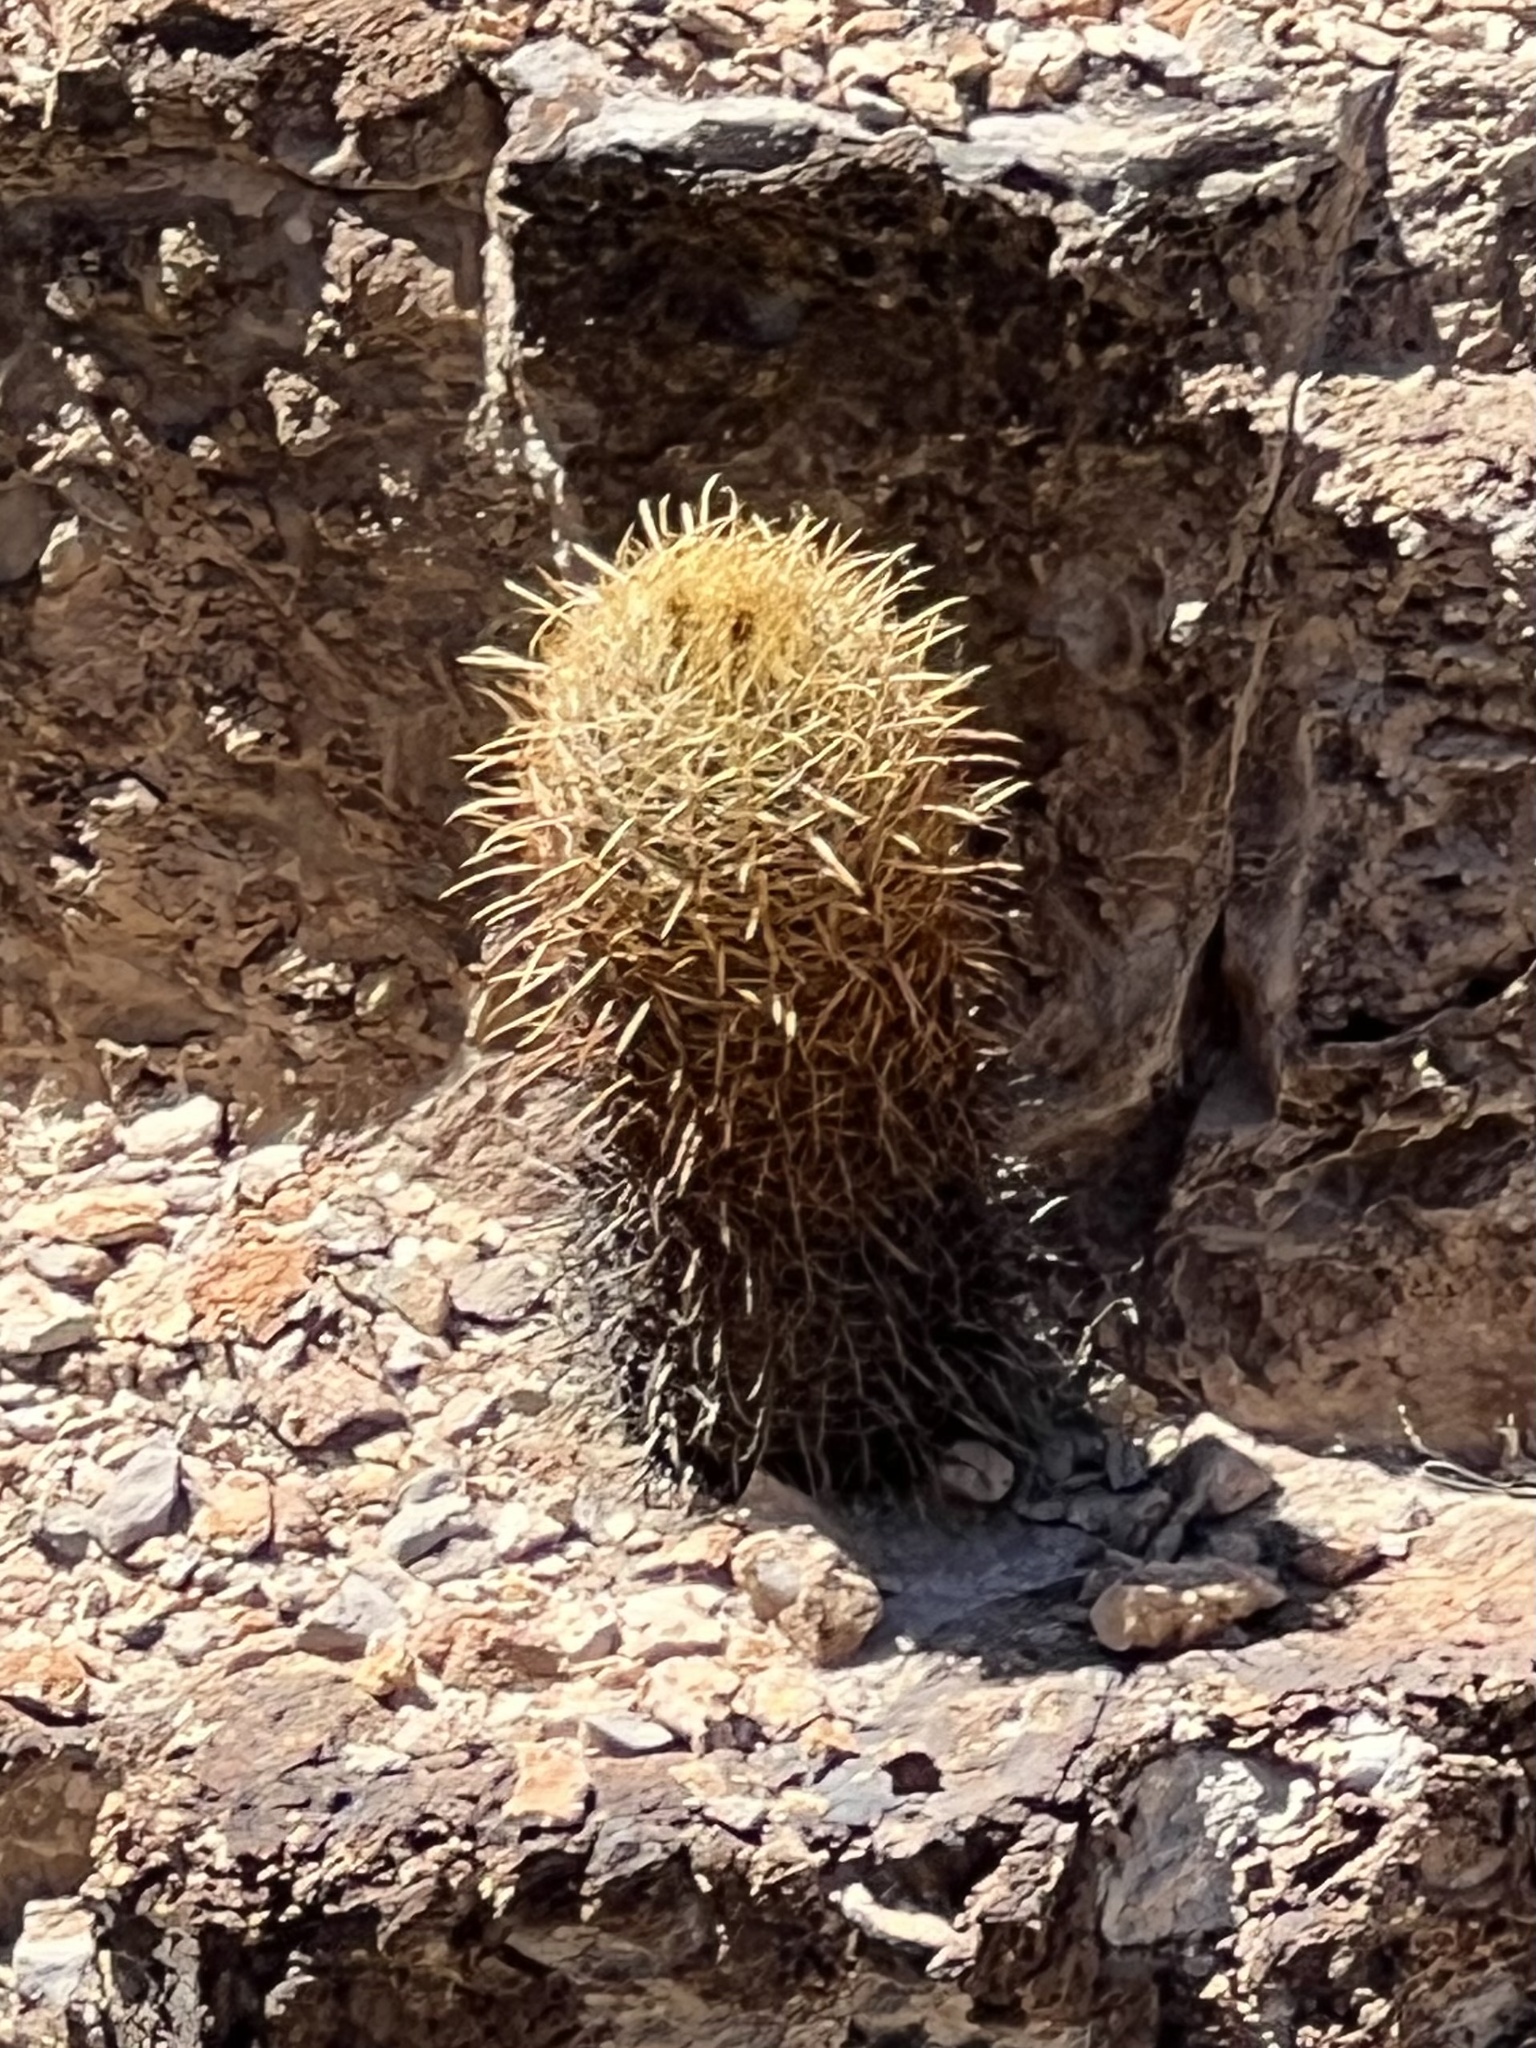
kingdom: Plantae
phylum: Tracheophyta
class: Magnoliopsida
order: Caryophyllales
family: Cactaceae
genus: Ferocactus
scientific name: Ferocactus cylindraceus
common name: California barrel cactus
